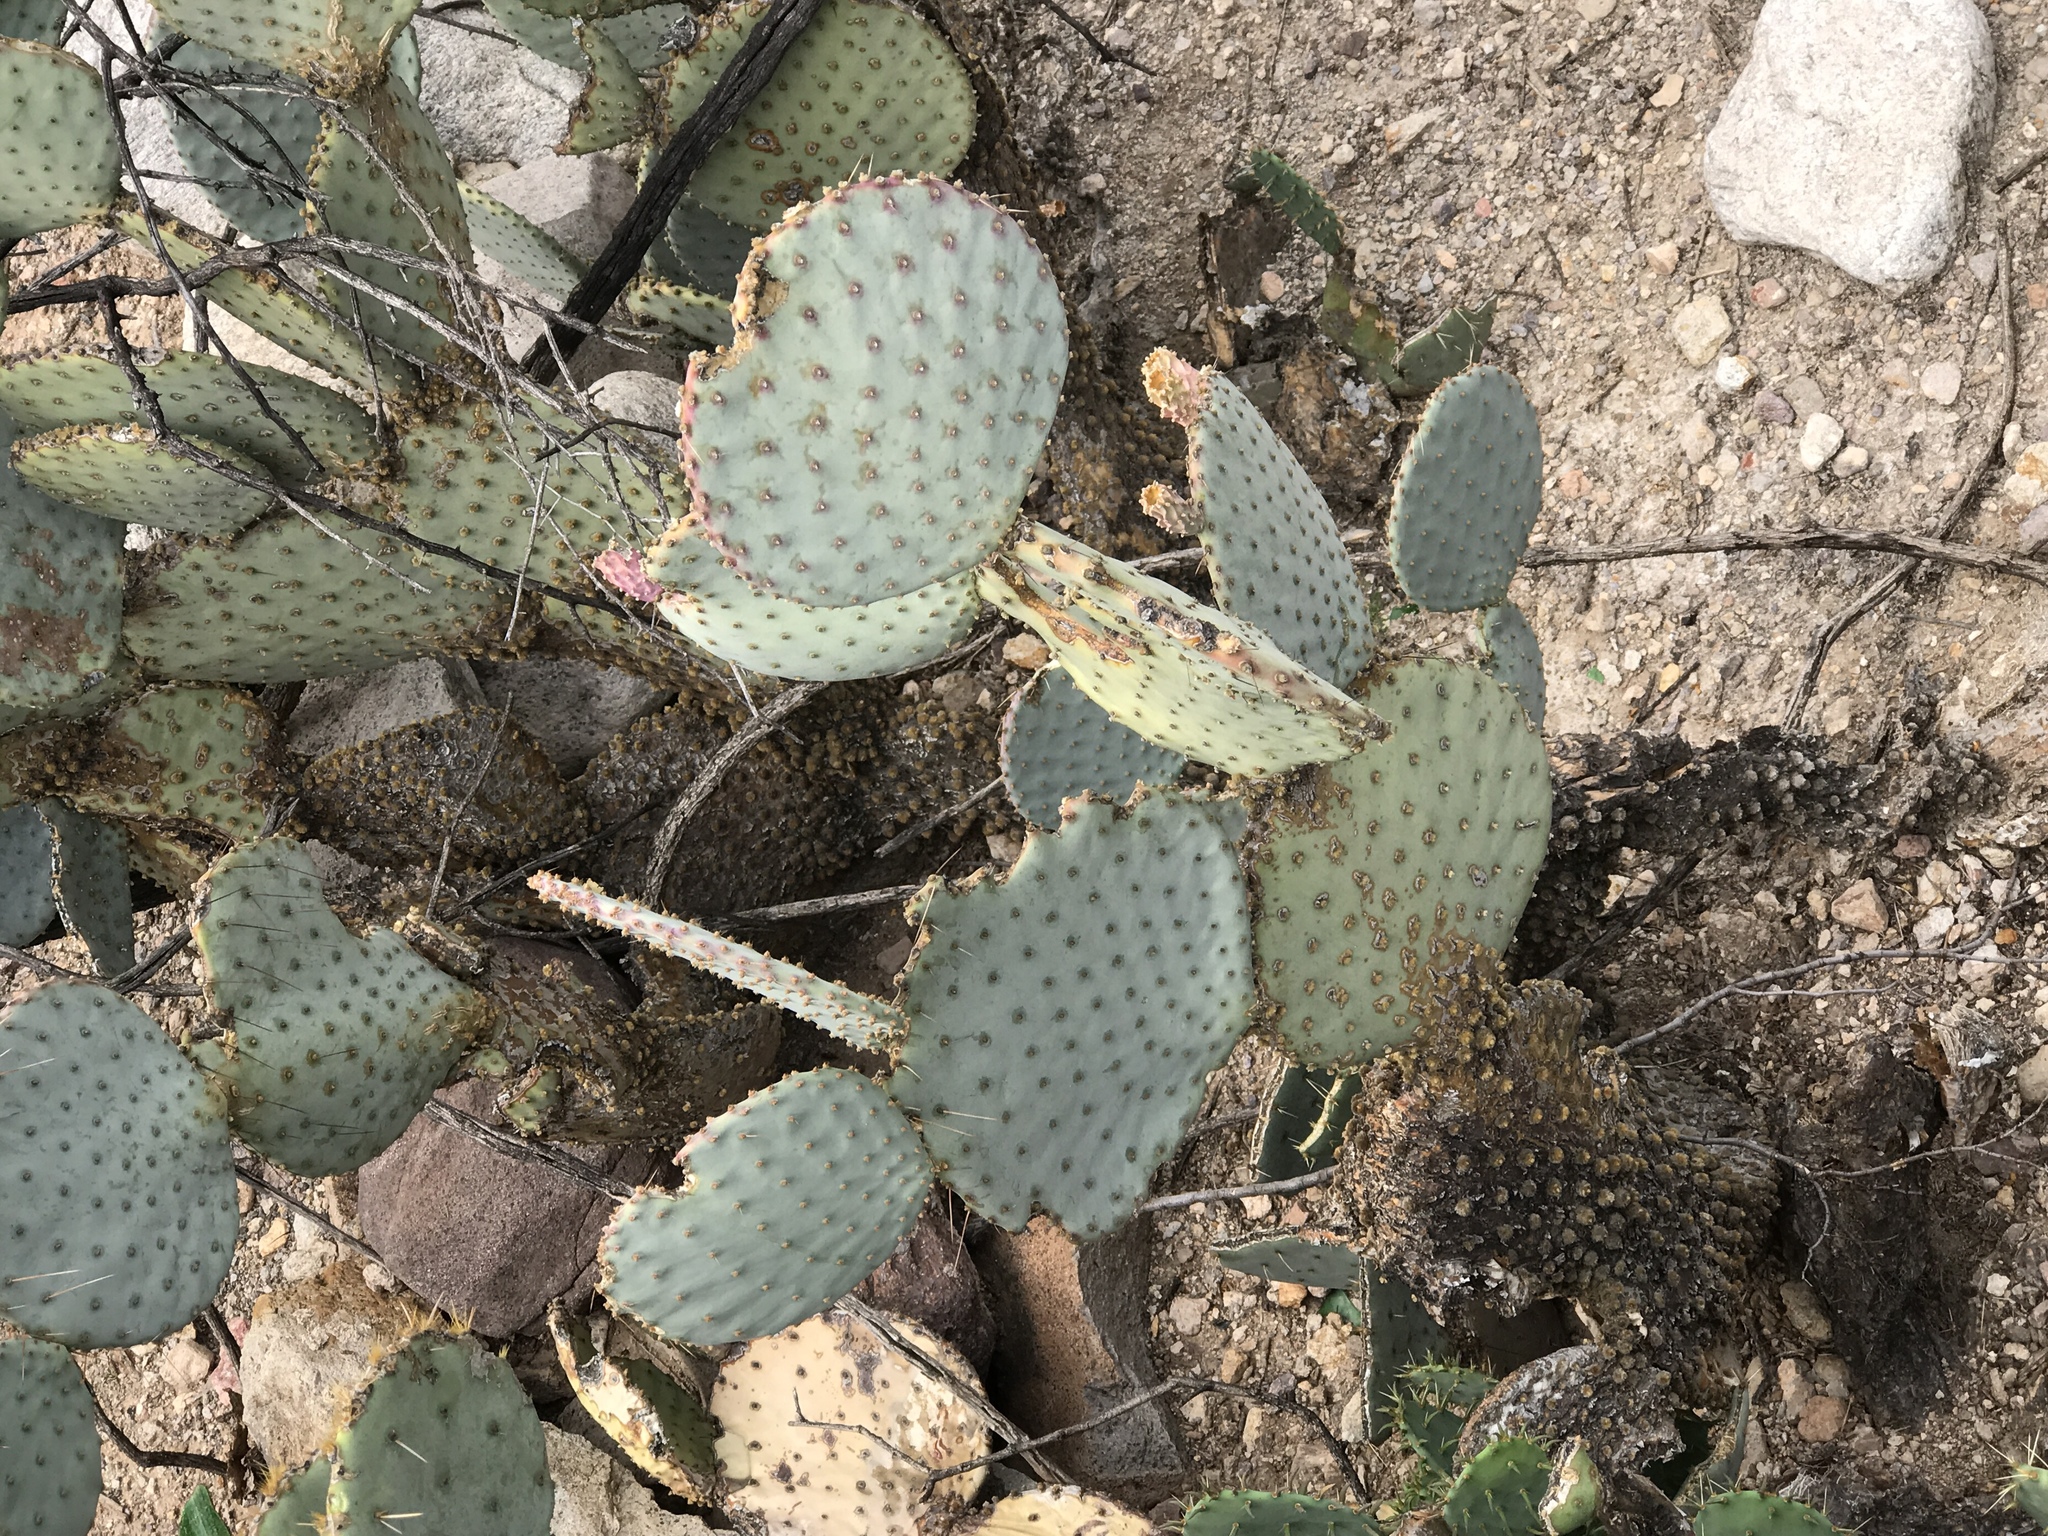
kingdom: Plantae
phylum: Tracheophyta
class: Magnoliopsida
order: Caryophyllales
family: Cactaceae
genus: Opuntia
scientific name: Opuntia macrocentra
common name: Purple prickly-pear
